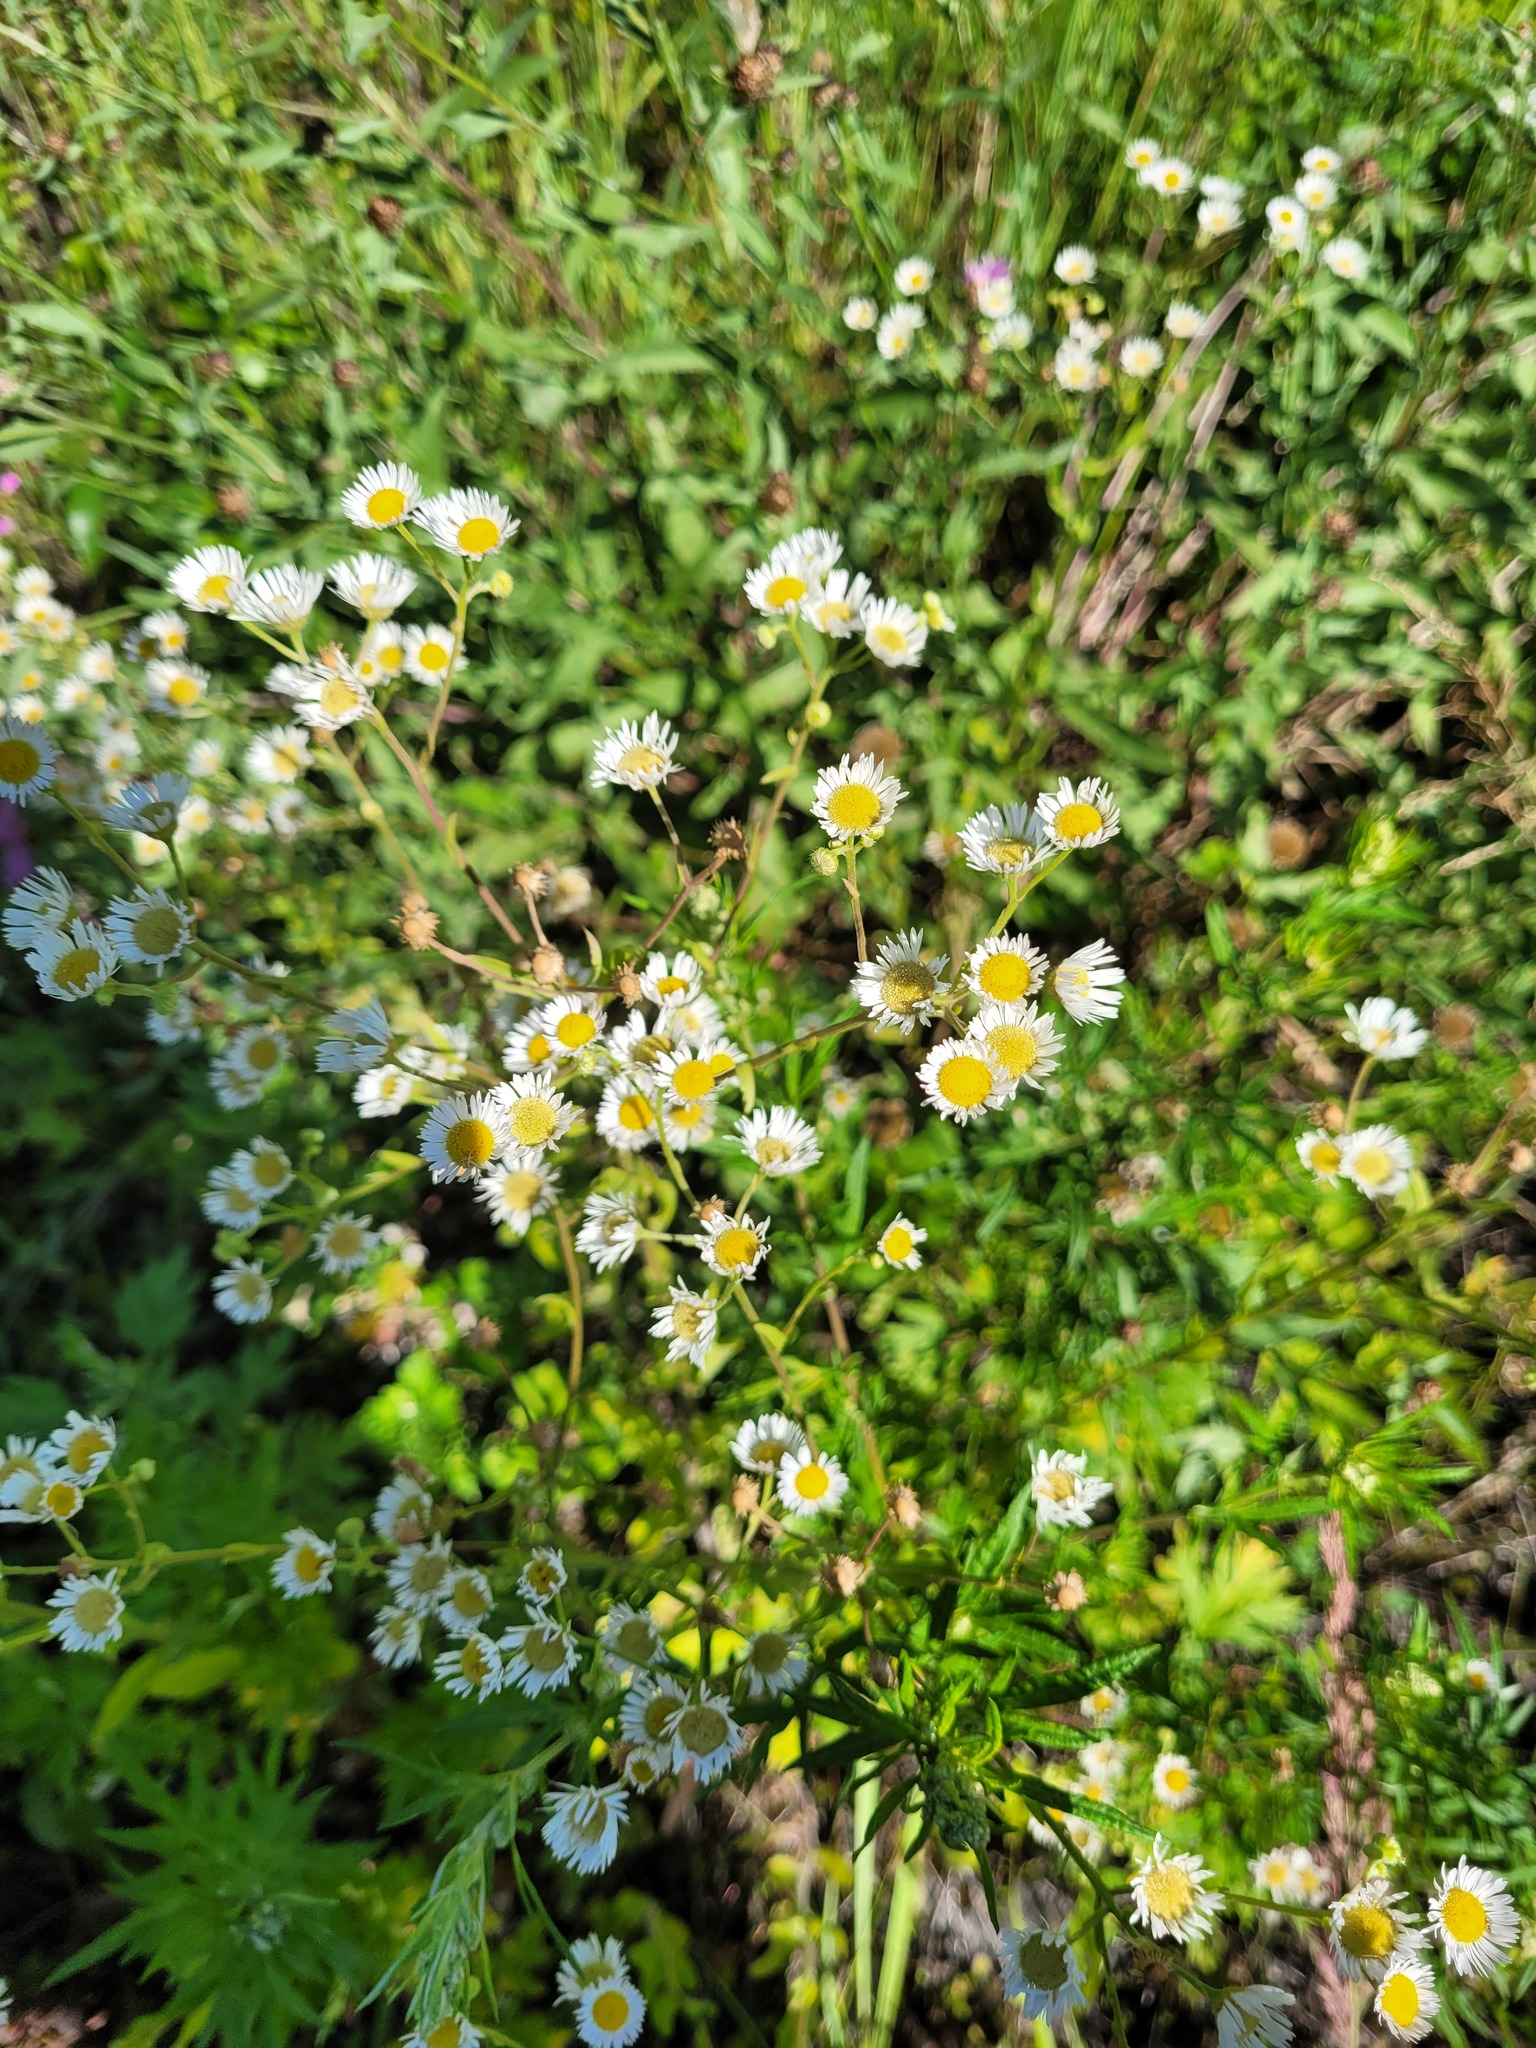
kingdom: Plantae
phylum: Tracheophyta
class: Magnoliopsida
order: Asterales
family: Asteraceae
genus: Erigeron
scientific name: Erigeron annuus
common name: Tall fleabane
